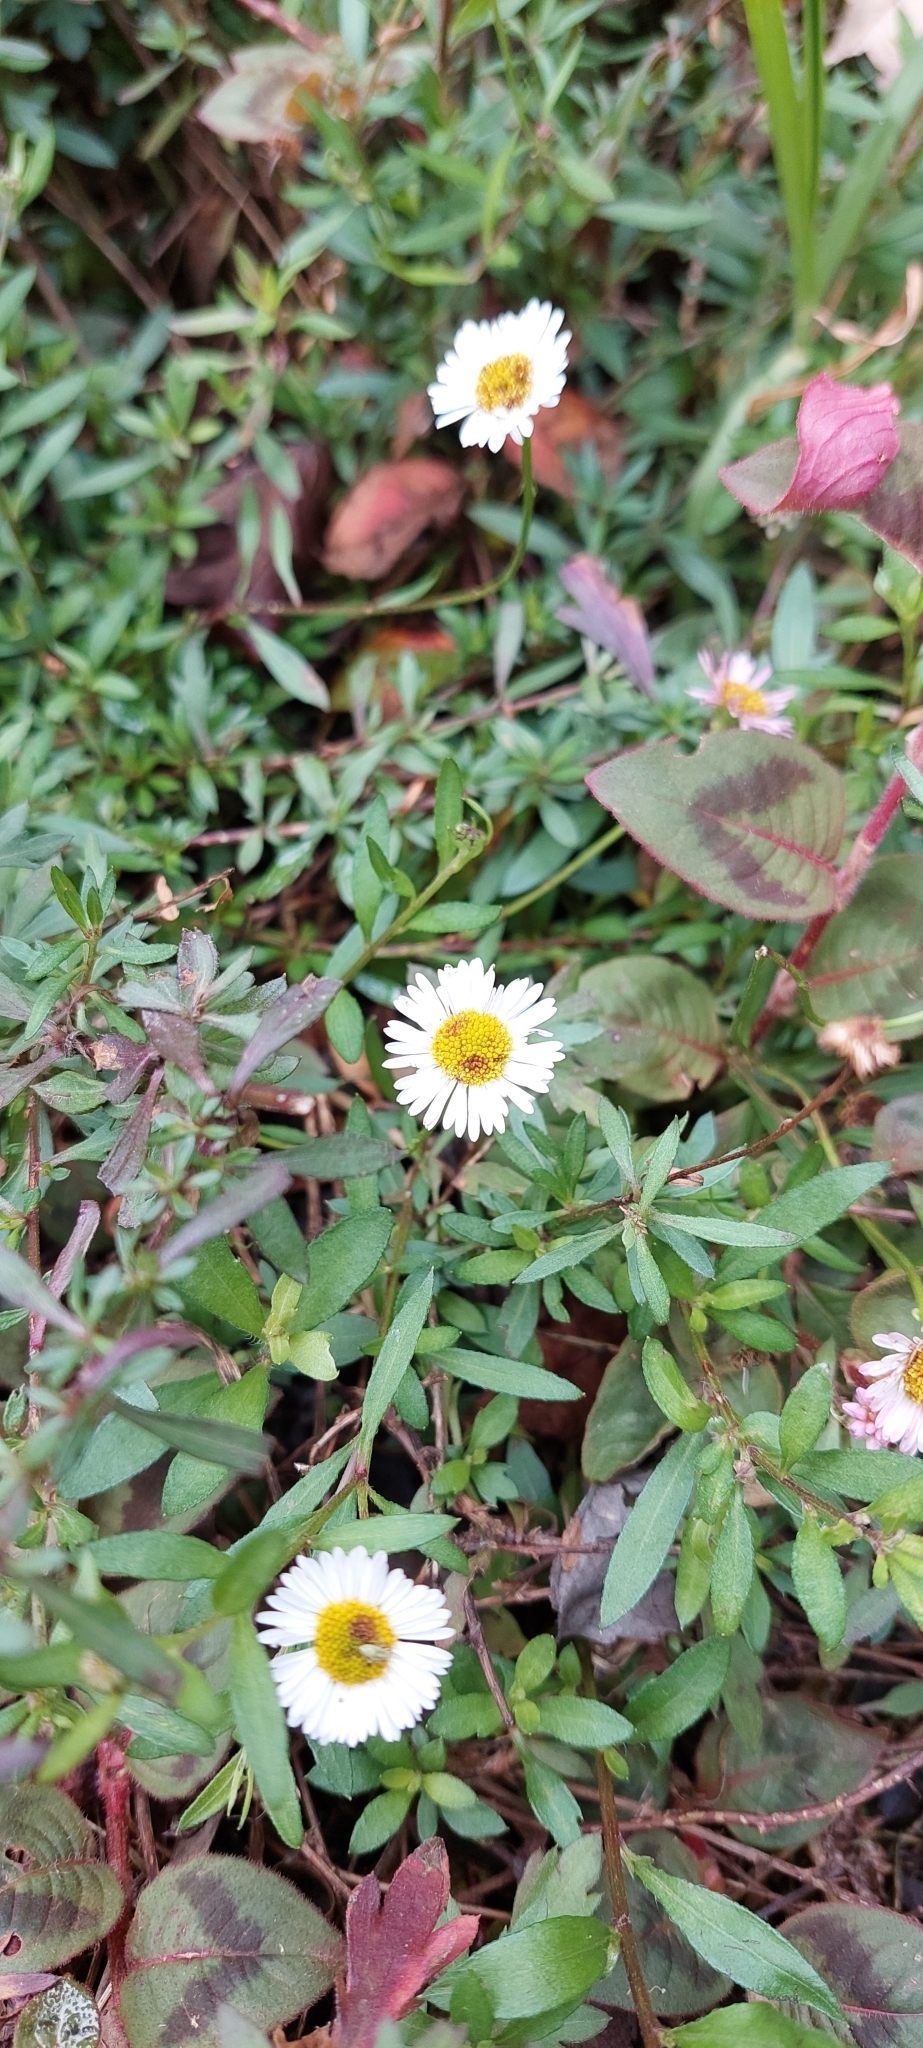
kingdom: Plantae
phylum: Tracheophyta
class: Magnoliopsida
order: Asterales
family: Asteraceae
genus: Erigeron
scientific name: Erigeron karvinskianus
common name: Mexican fleabane
